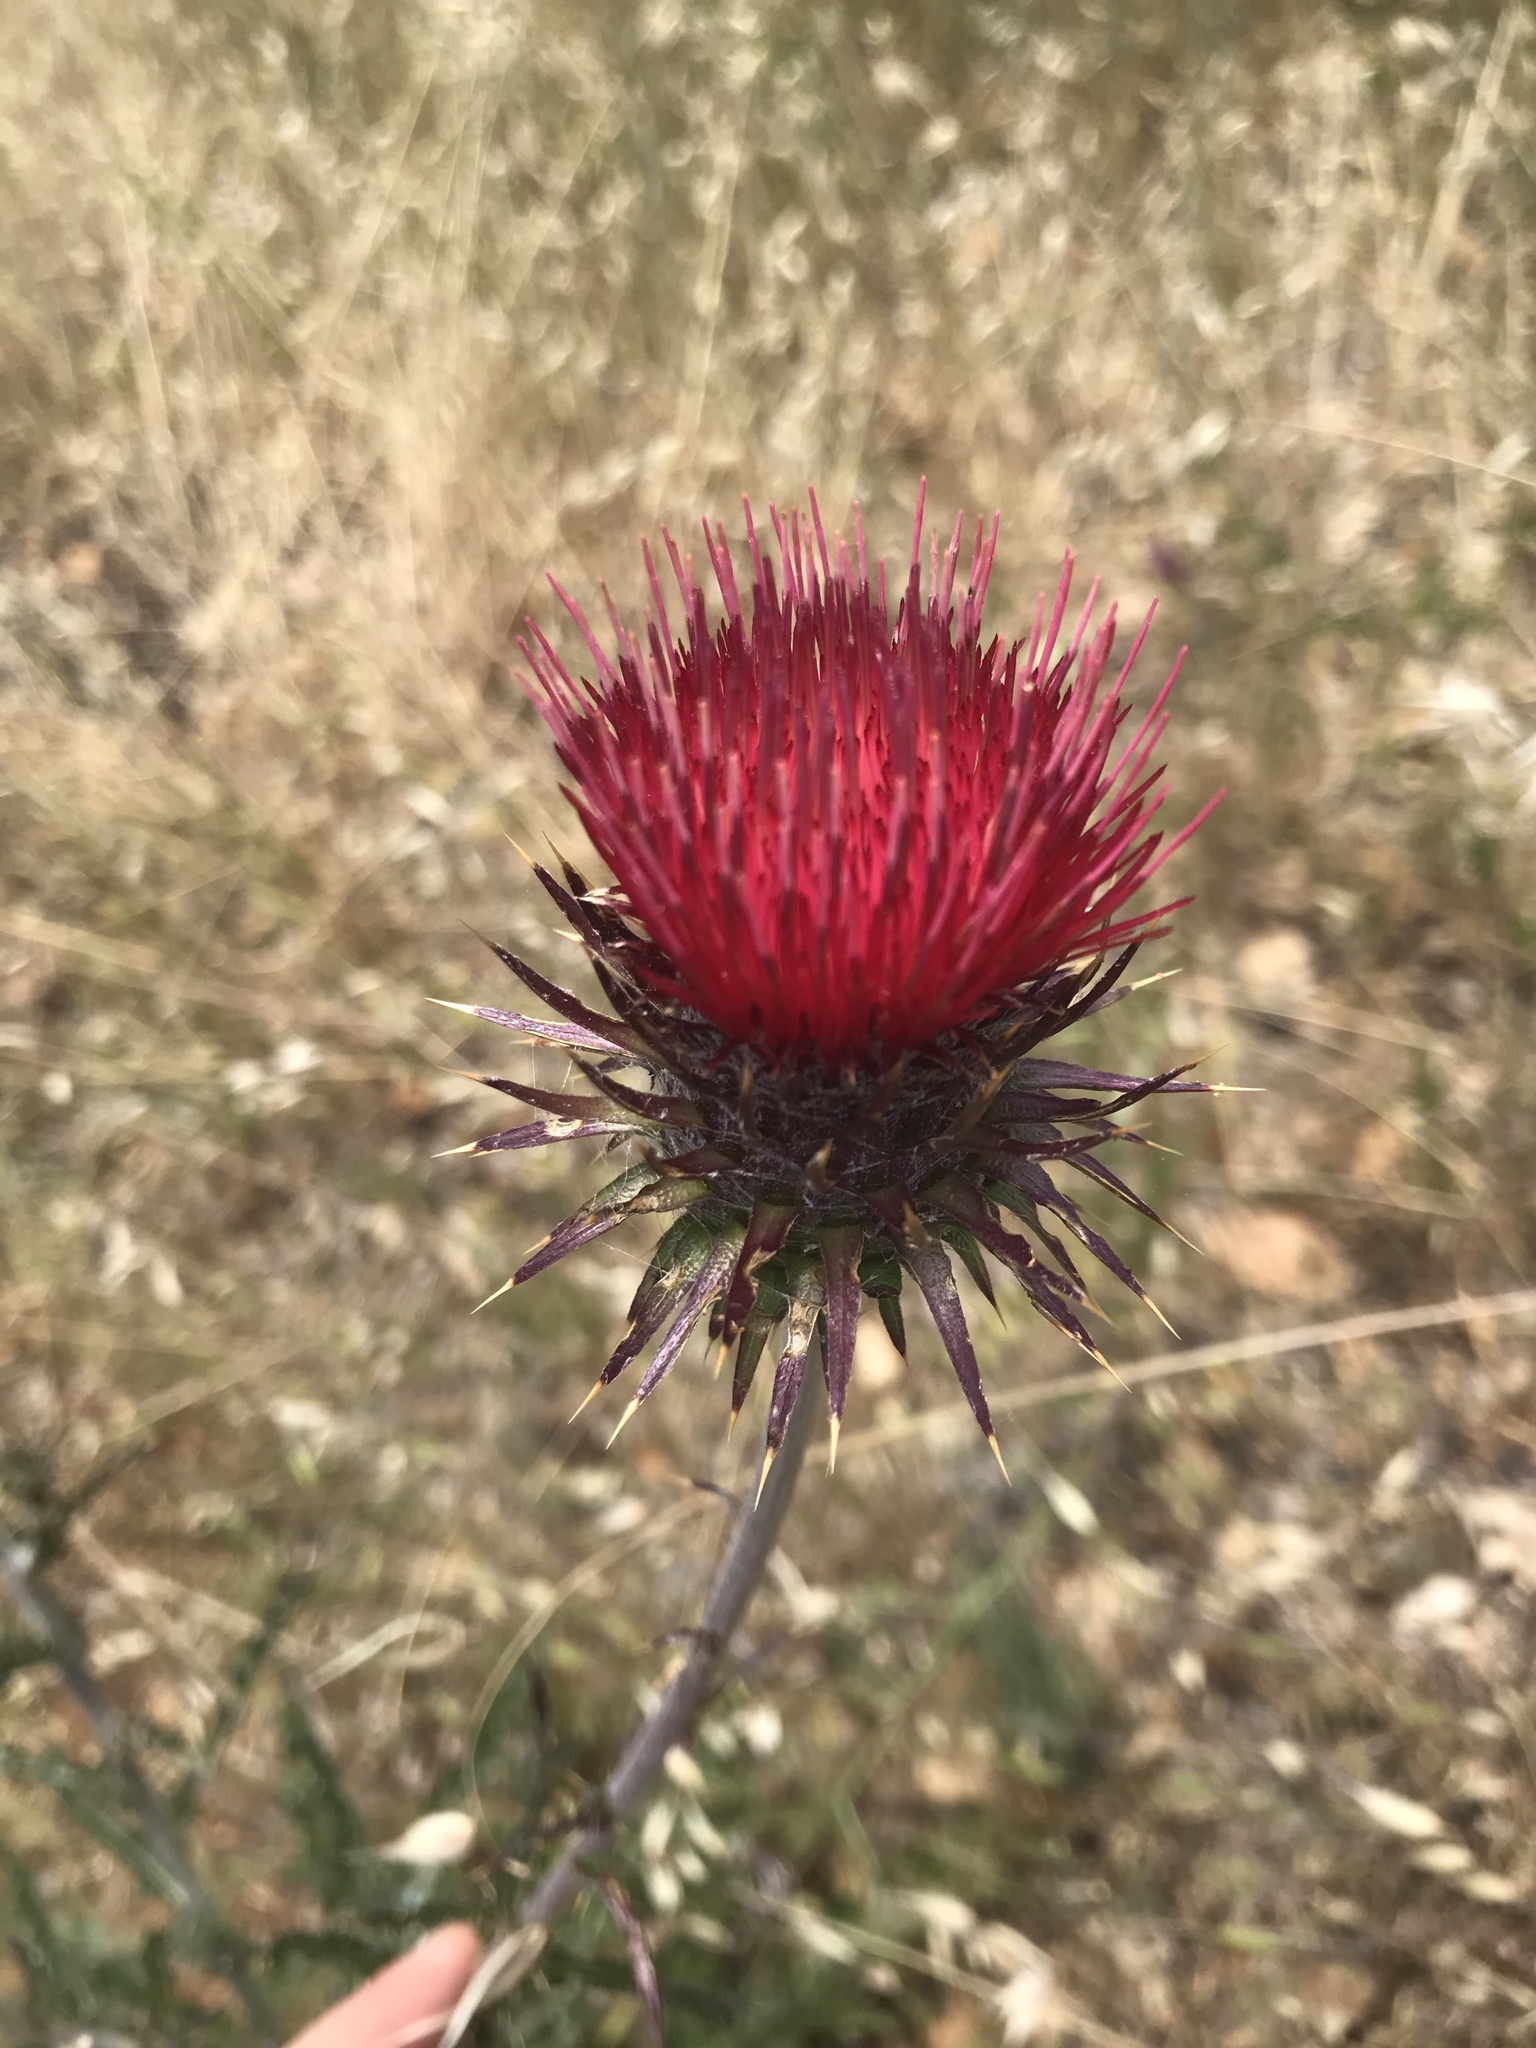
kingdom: Plantae
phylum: Tracheophyta
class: Magnoliopsida
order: Asterales
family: Asteraceae
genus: Cirsium
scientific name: Cirsium occidentale
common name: Western thistle
